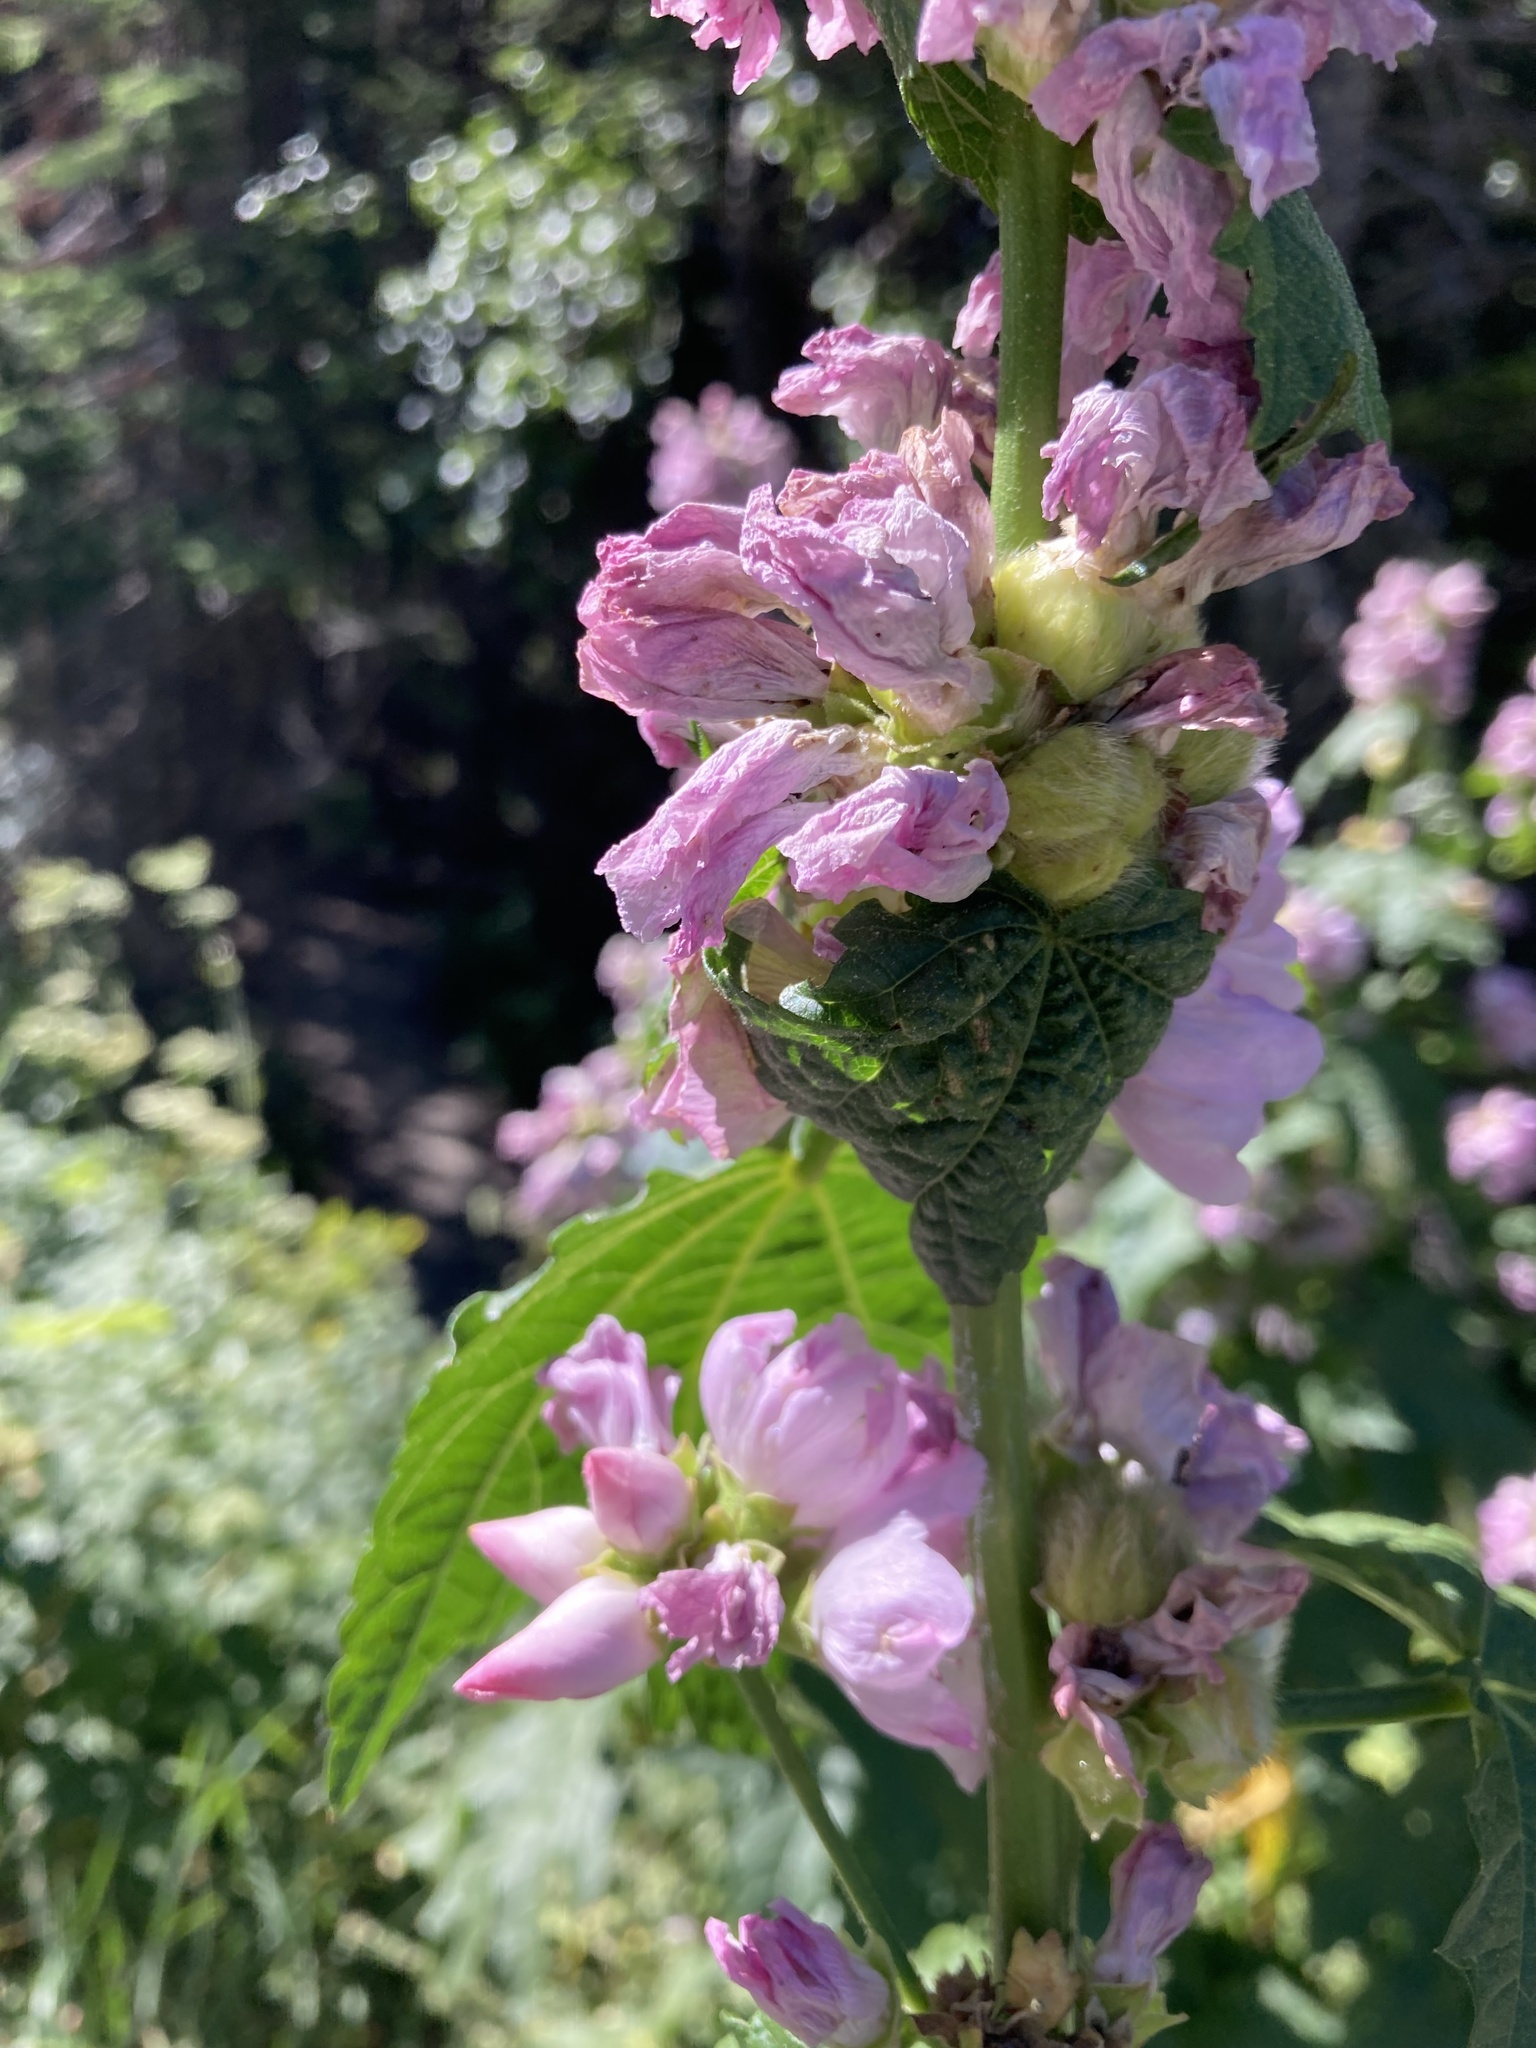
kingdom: Plantae
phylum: Tracheophyta
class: Magnoliopsida
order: Malvales
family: Malvaceae
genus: Iliamna
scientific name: Iliamna rivularis
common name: Wild hollyhock
